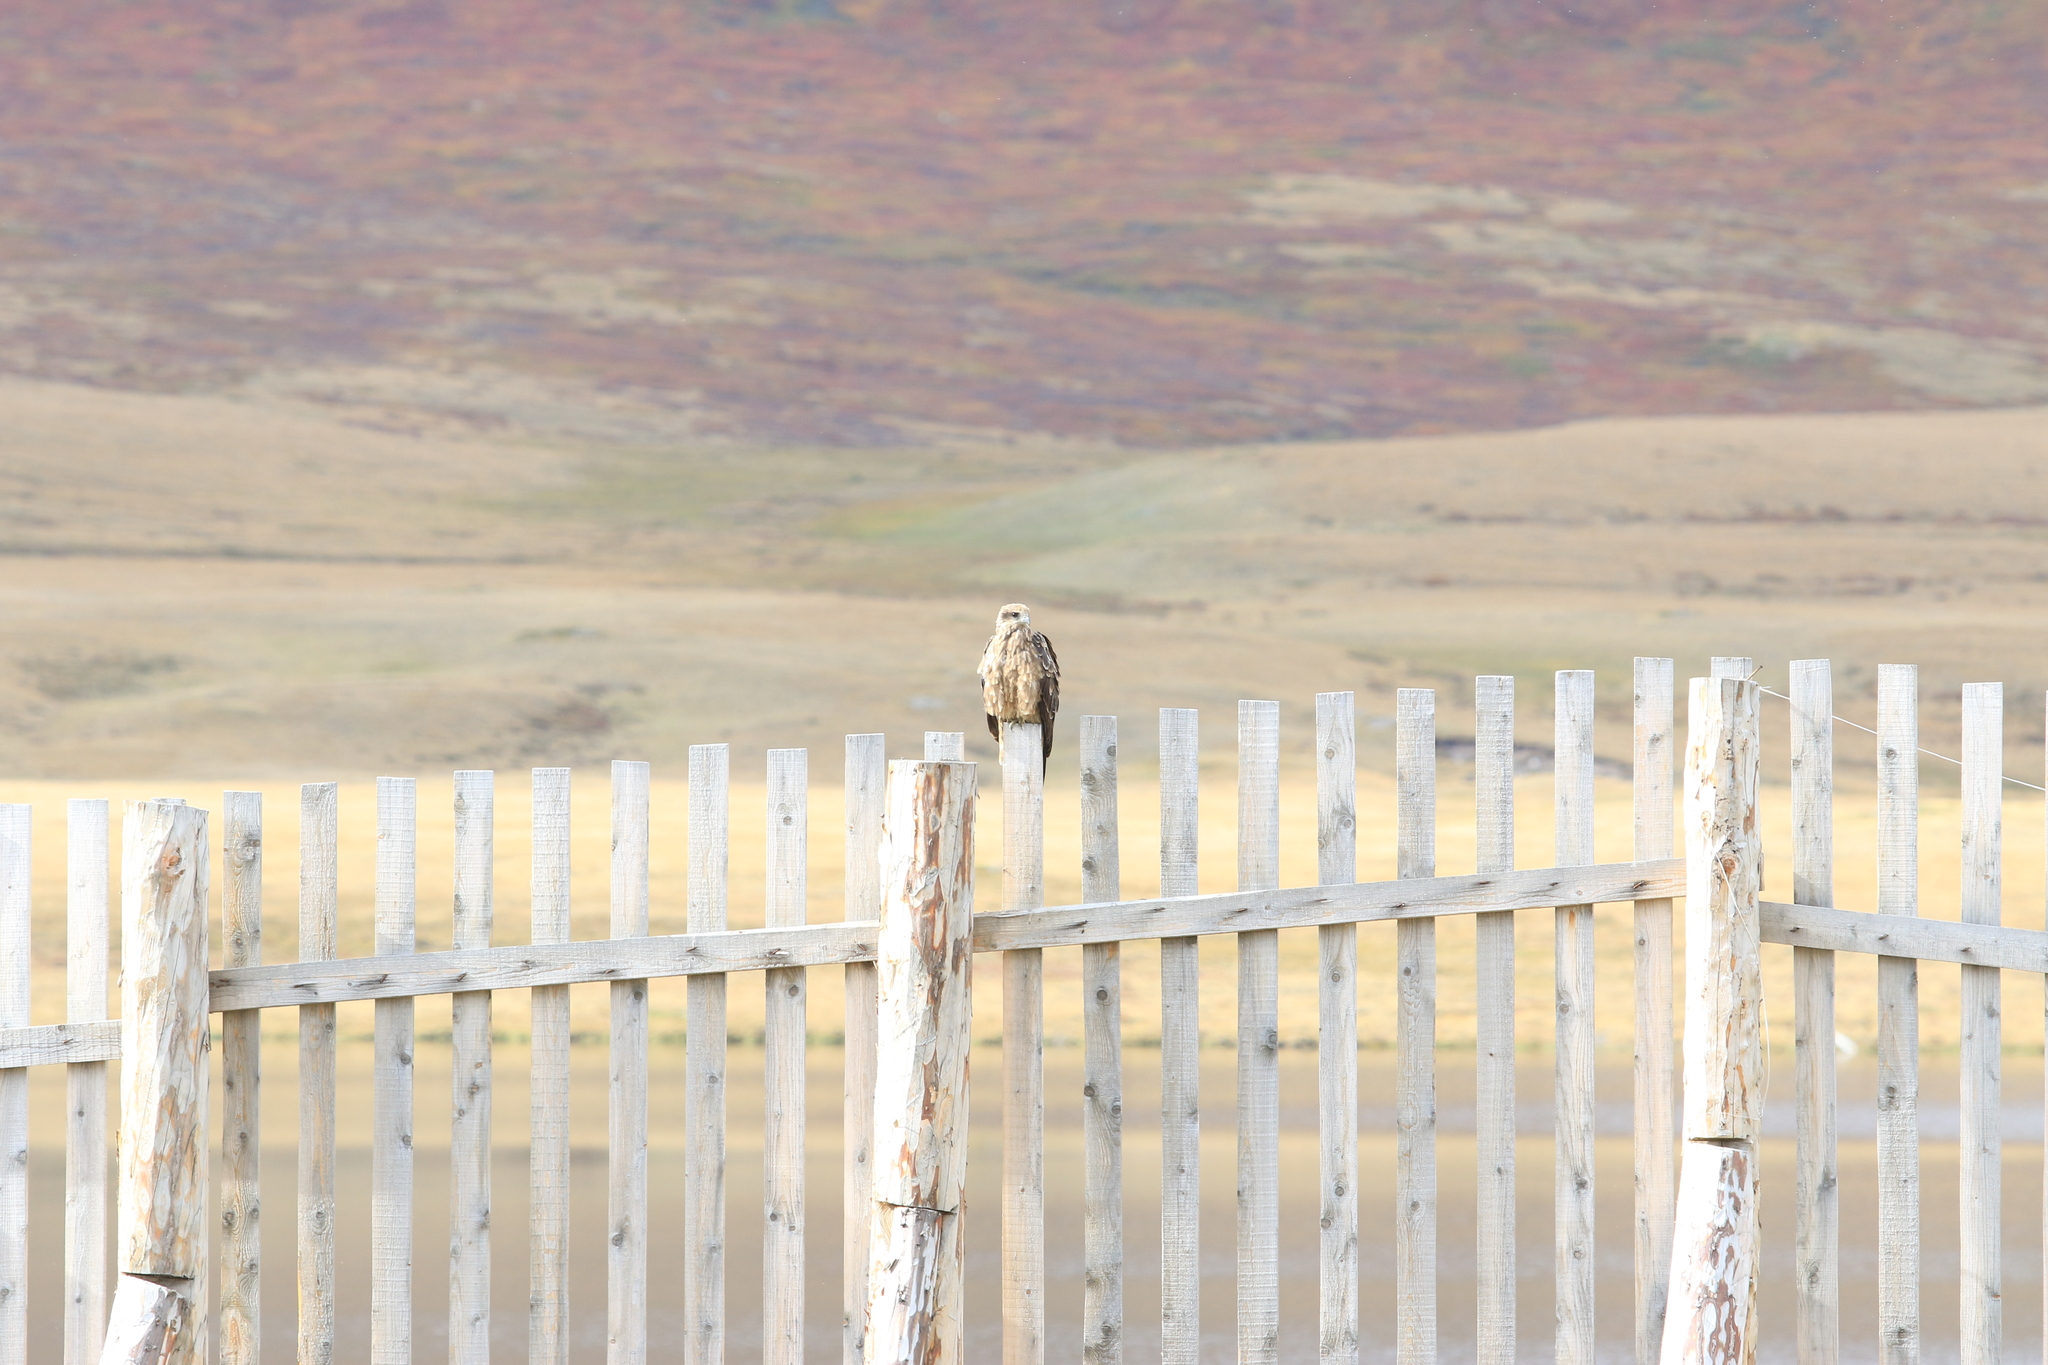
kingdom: Animalia
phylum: Chordata
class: Aves
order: Accipitriformes
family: Accipitridae
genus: Milvus
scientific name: Milvus migrans
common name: Black kite
